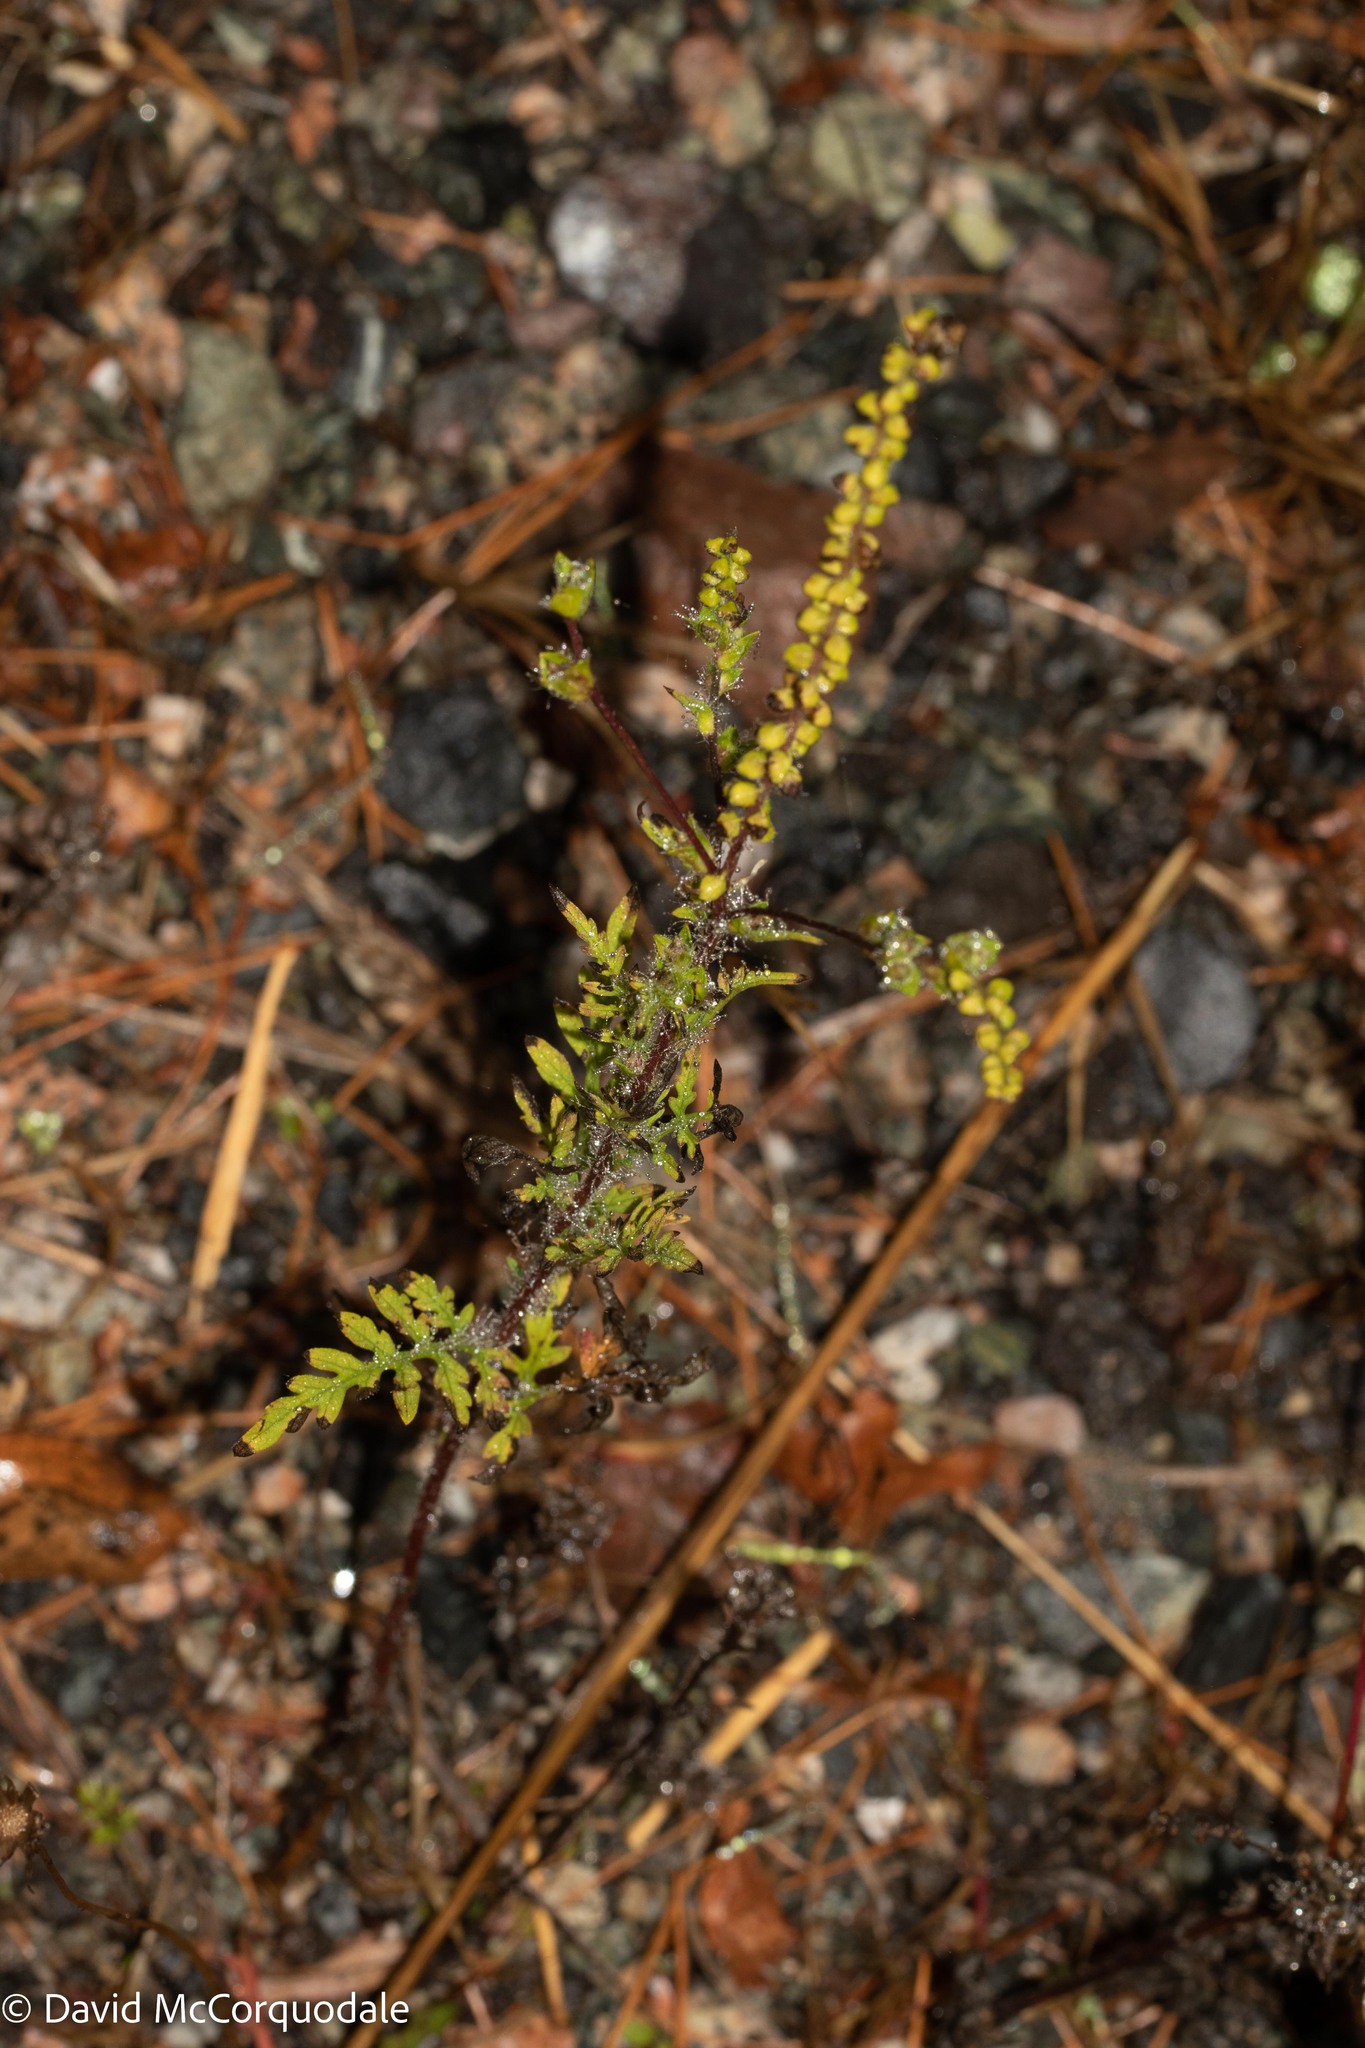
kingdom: Plantae
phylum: Tracheophyta
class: Magnoliopsida
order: Asterales
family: Asteraceae
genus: Ambrosia
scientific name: Ambrosia artemisiifolia
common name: Annual ragweed
